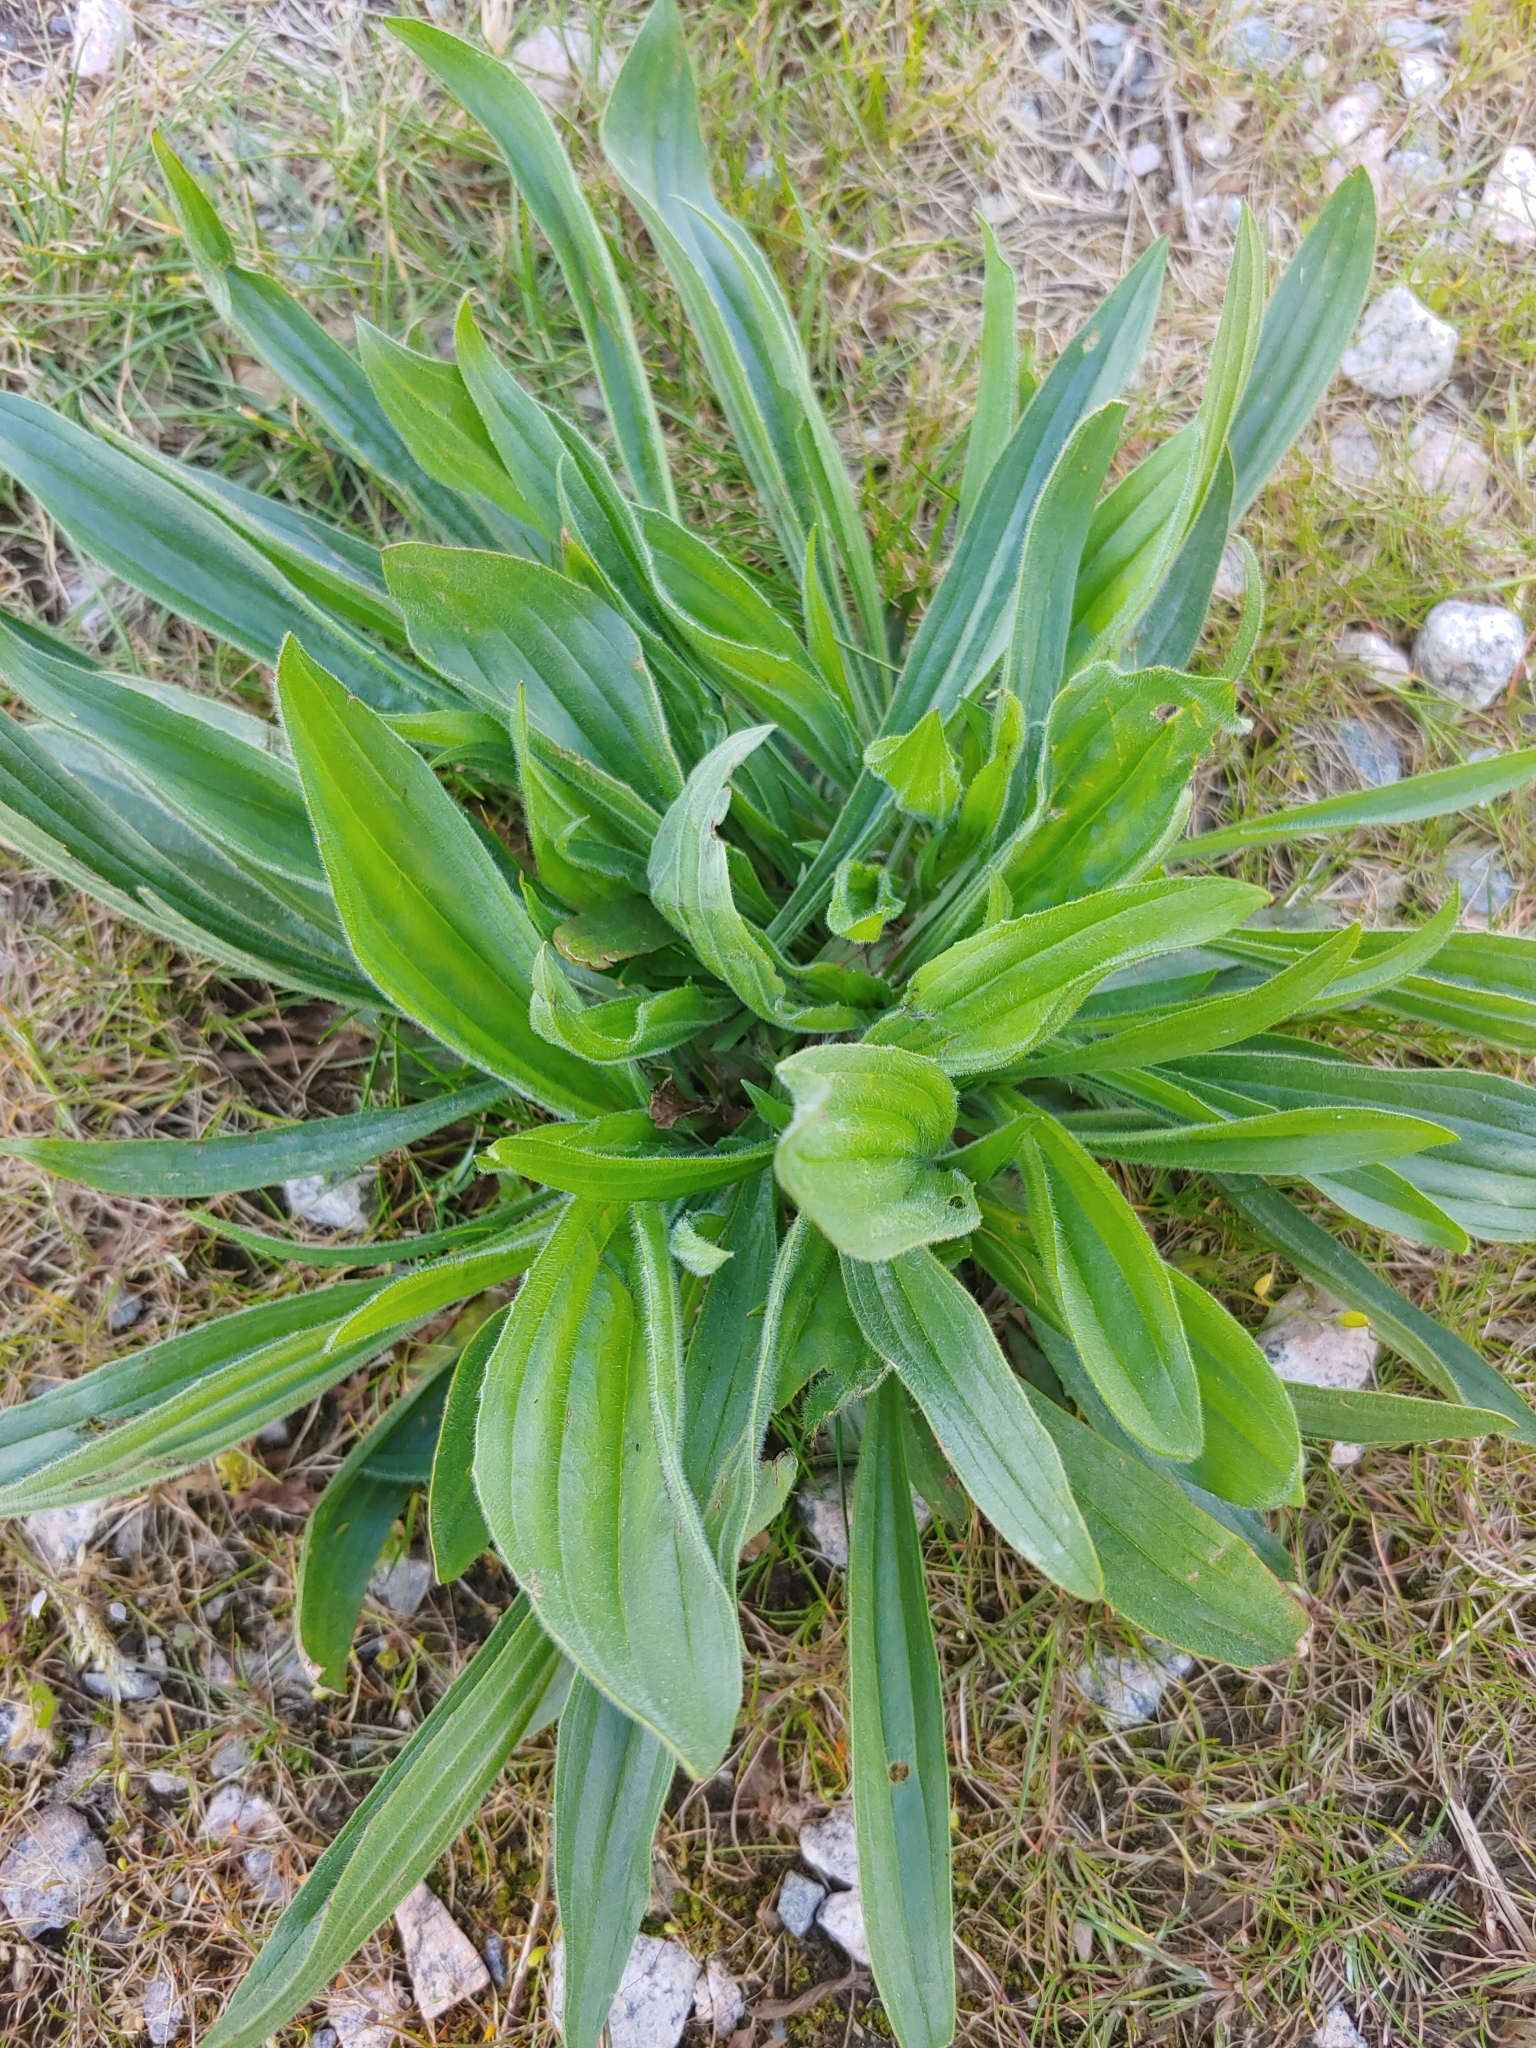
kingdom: Plantae
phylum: Tracheophyta
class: Magnoliopsida
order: Lamiales
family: Plantaginaceae
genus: Plantago
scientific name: Plantago lanceolata
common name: Ribwort plantain
